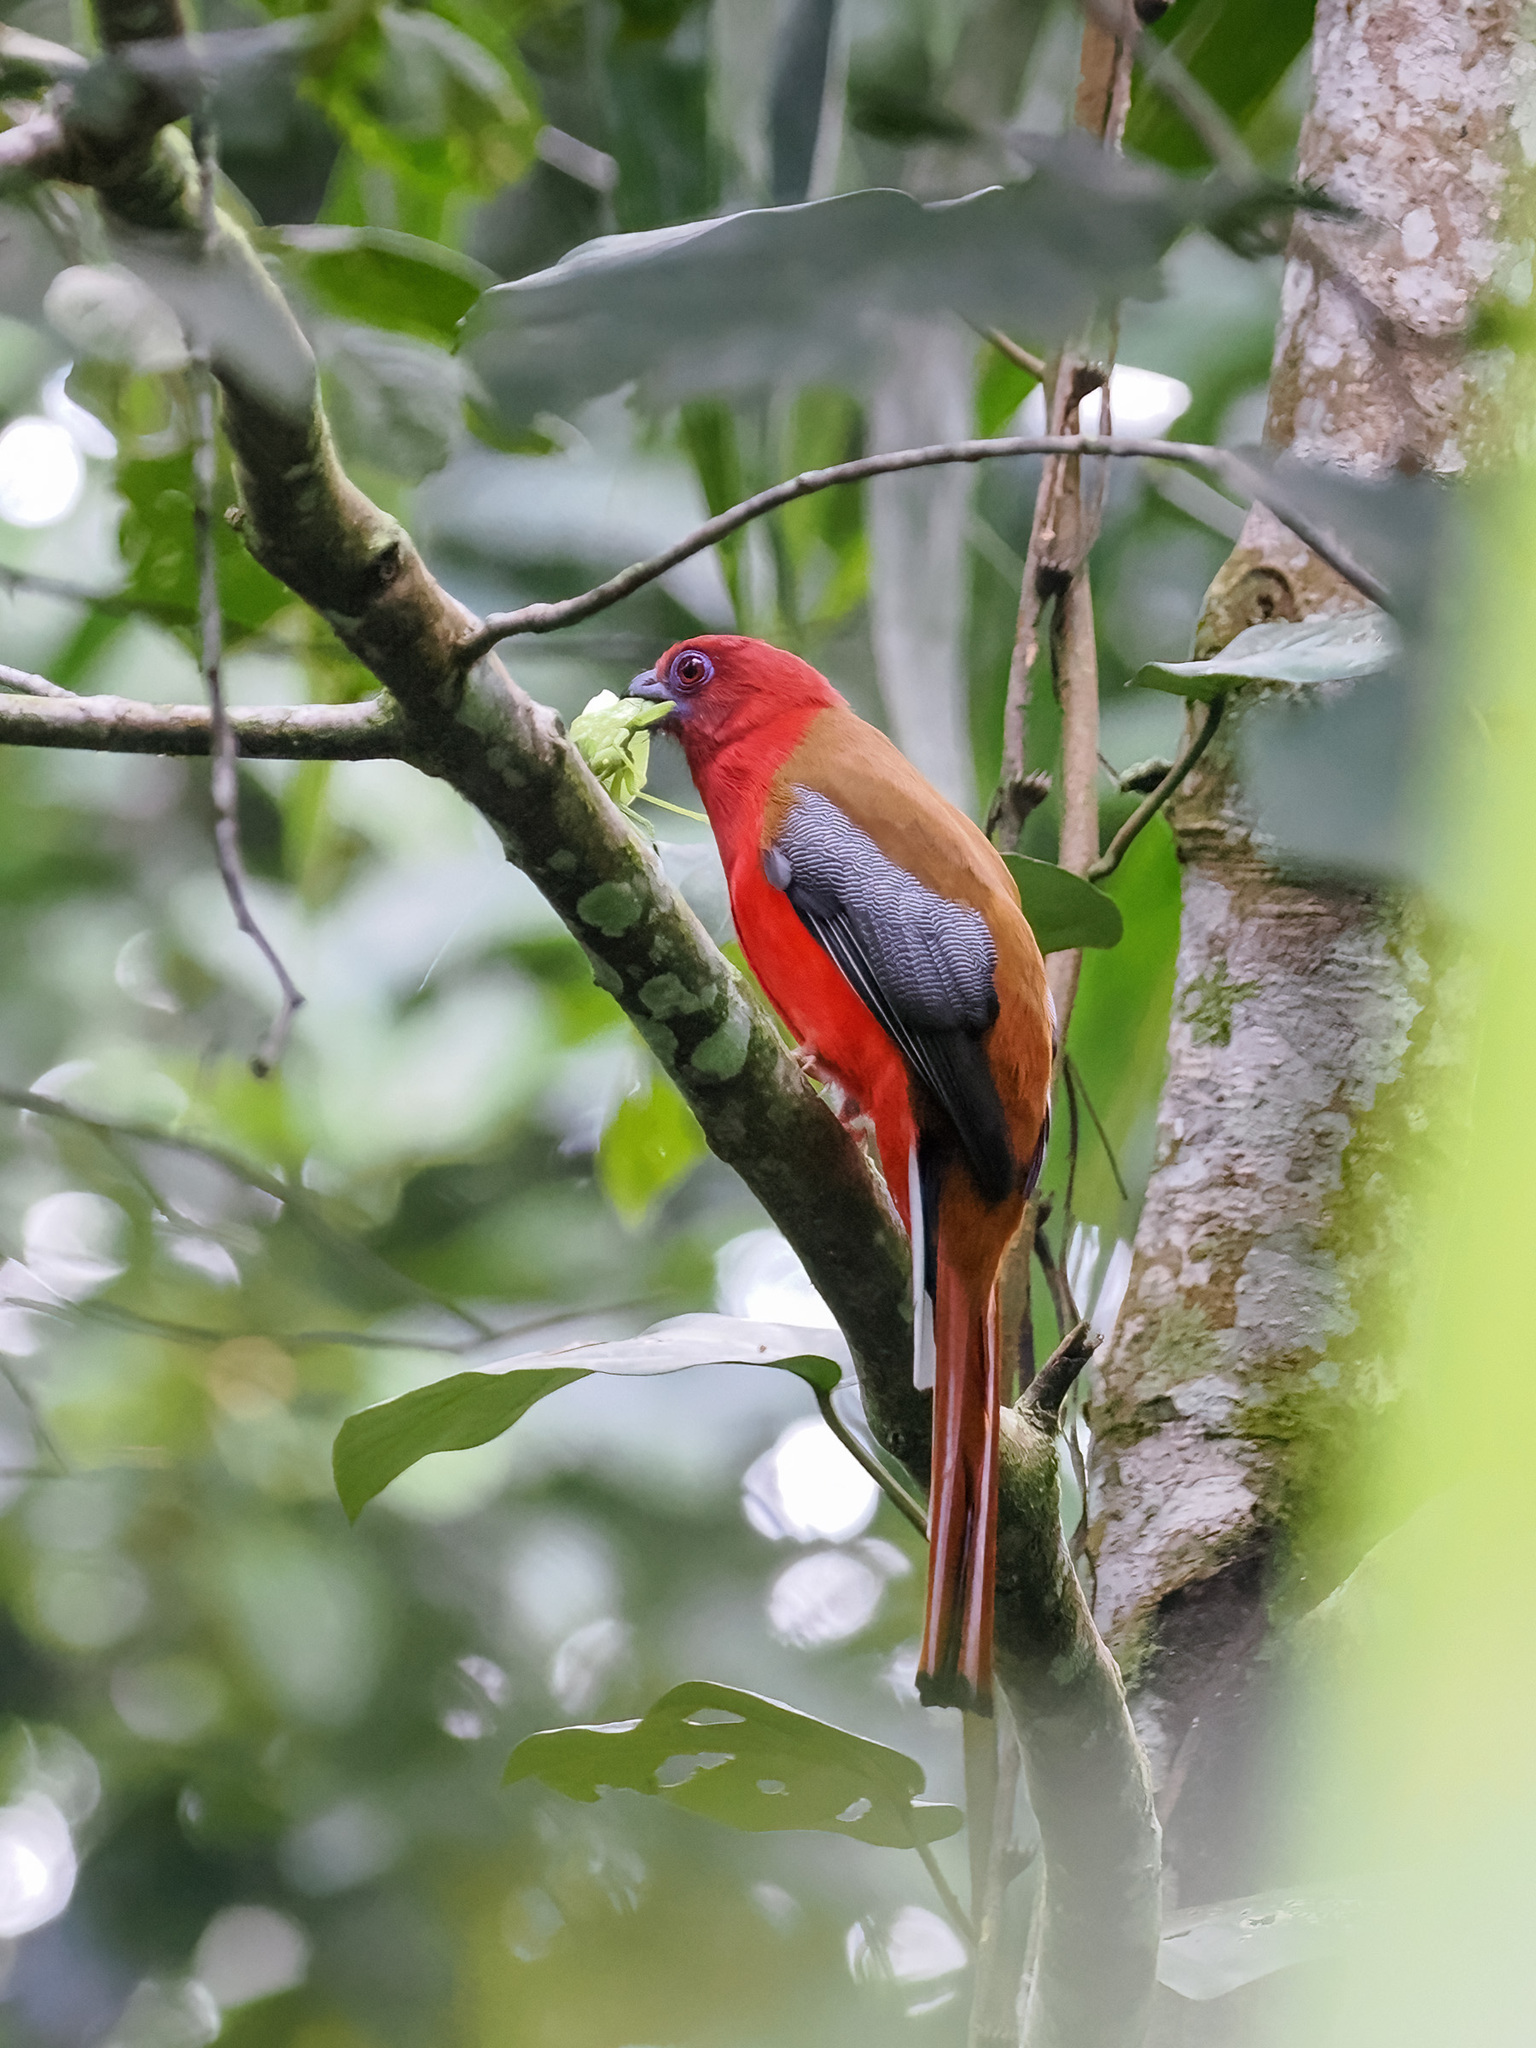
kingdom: Animalia
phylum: Chordata
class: Aves
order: Trogoniformes
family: Trogonidae
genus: Harpactes
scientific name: Harpactes erythrocephalus
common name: Red-headed trogon
